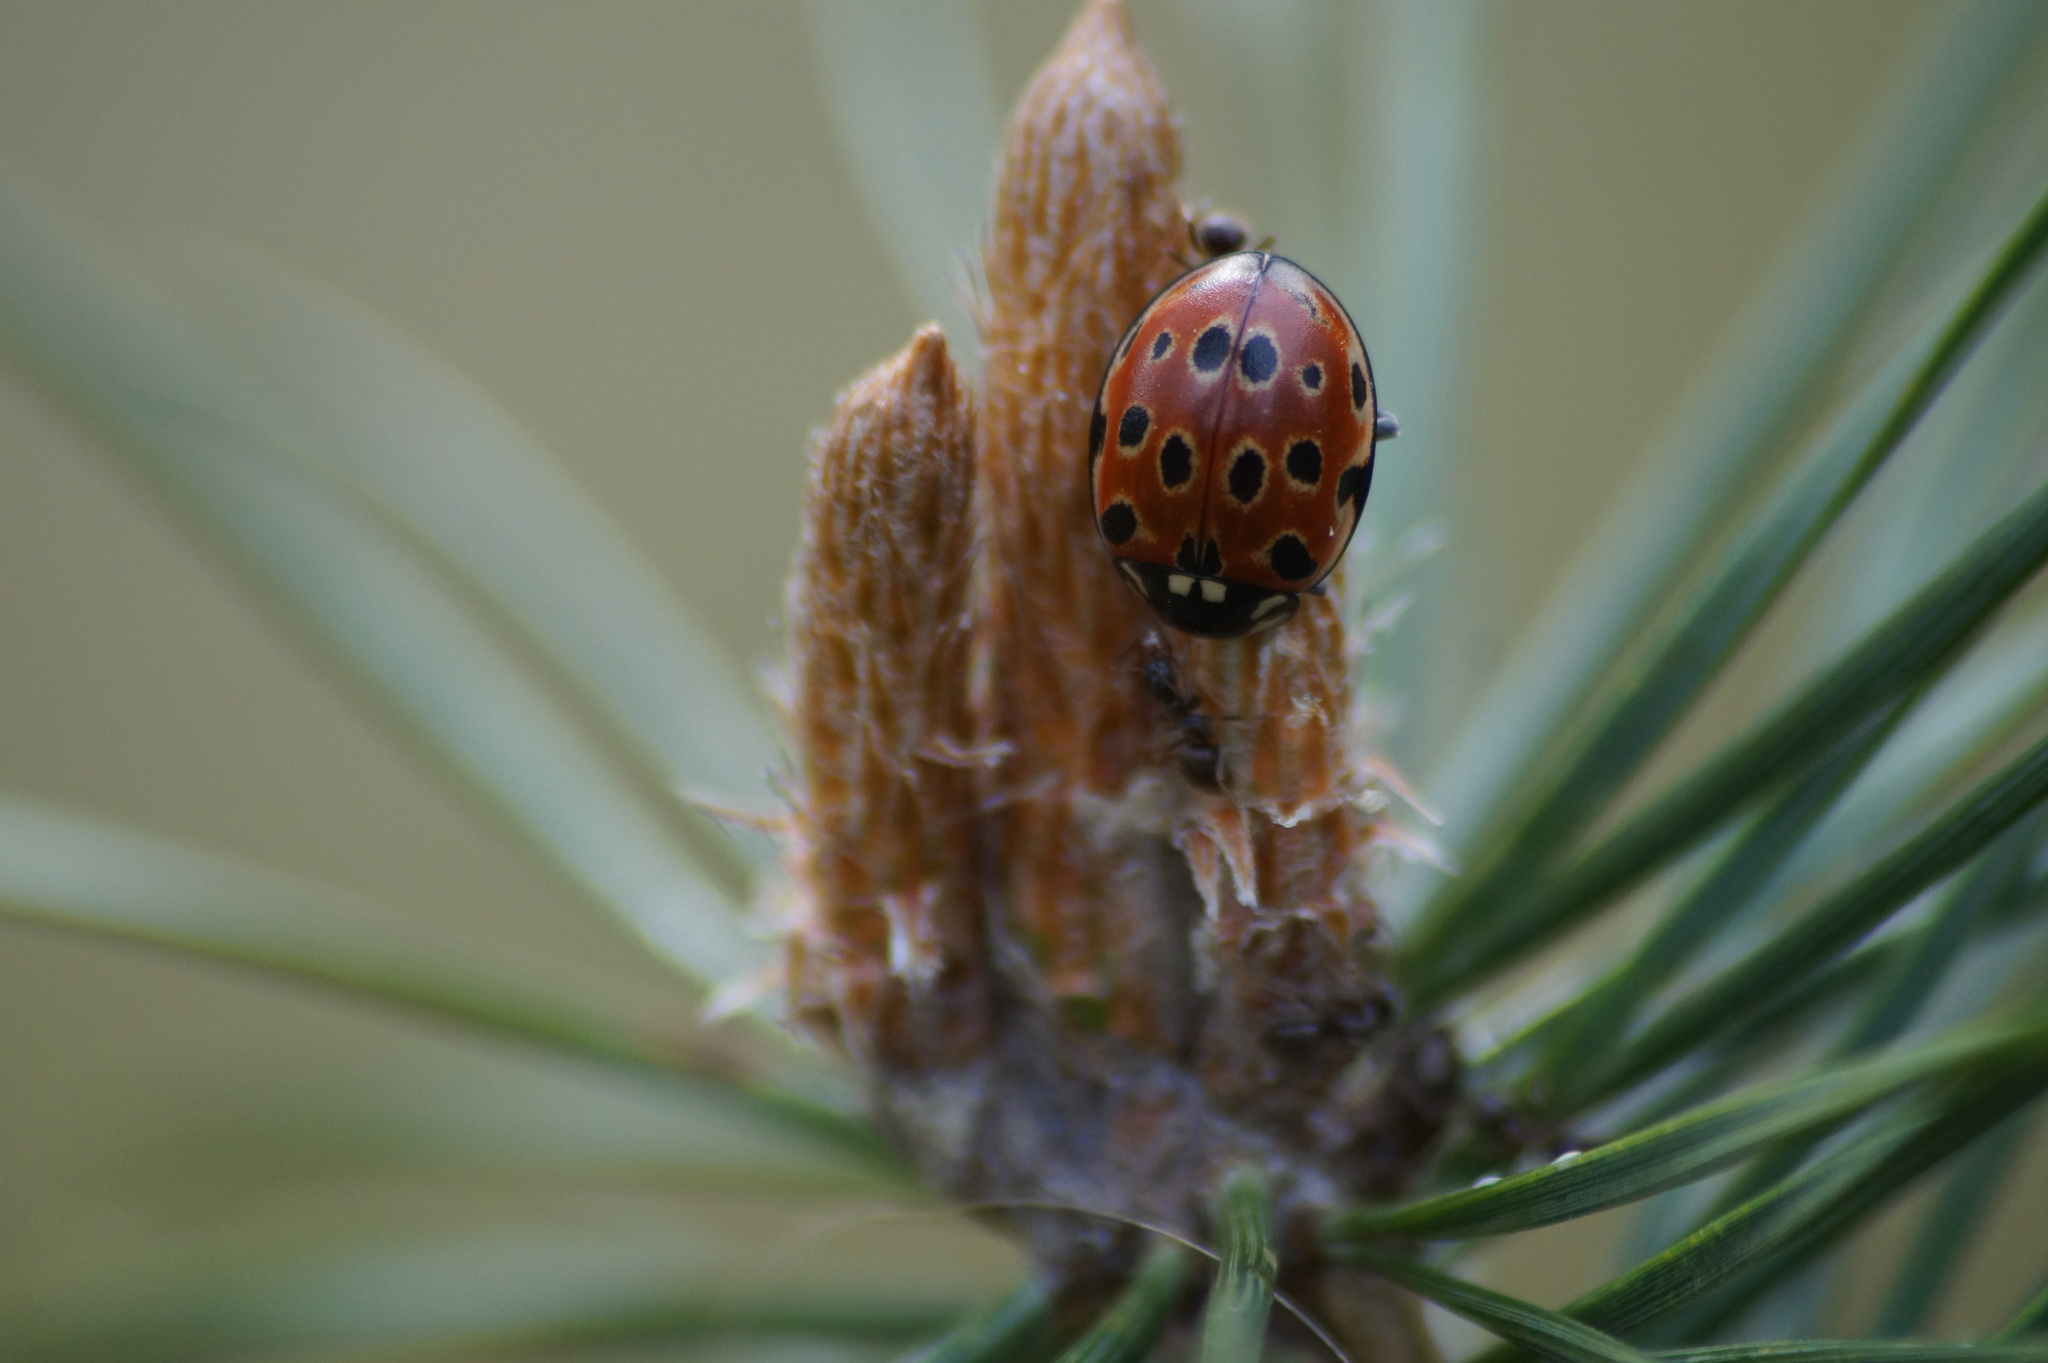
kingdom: Animalia
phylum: Arthropoda
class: Insecta
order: Coleoptera
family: Coccinellidae
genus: Anatis
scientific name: Anatis ocellata
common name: Eyed ladybird
